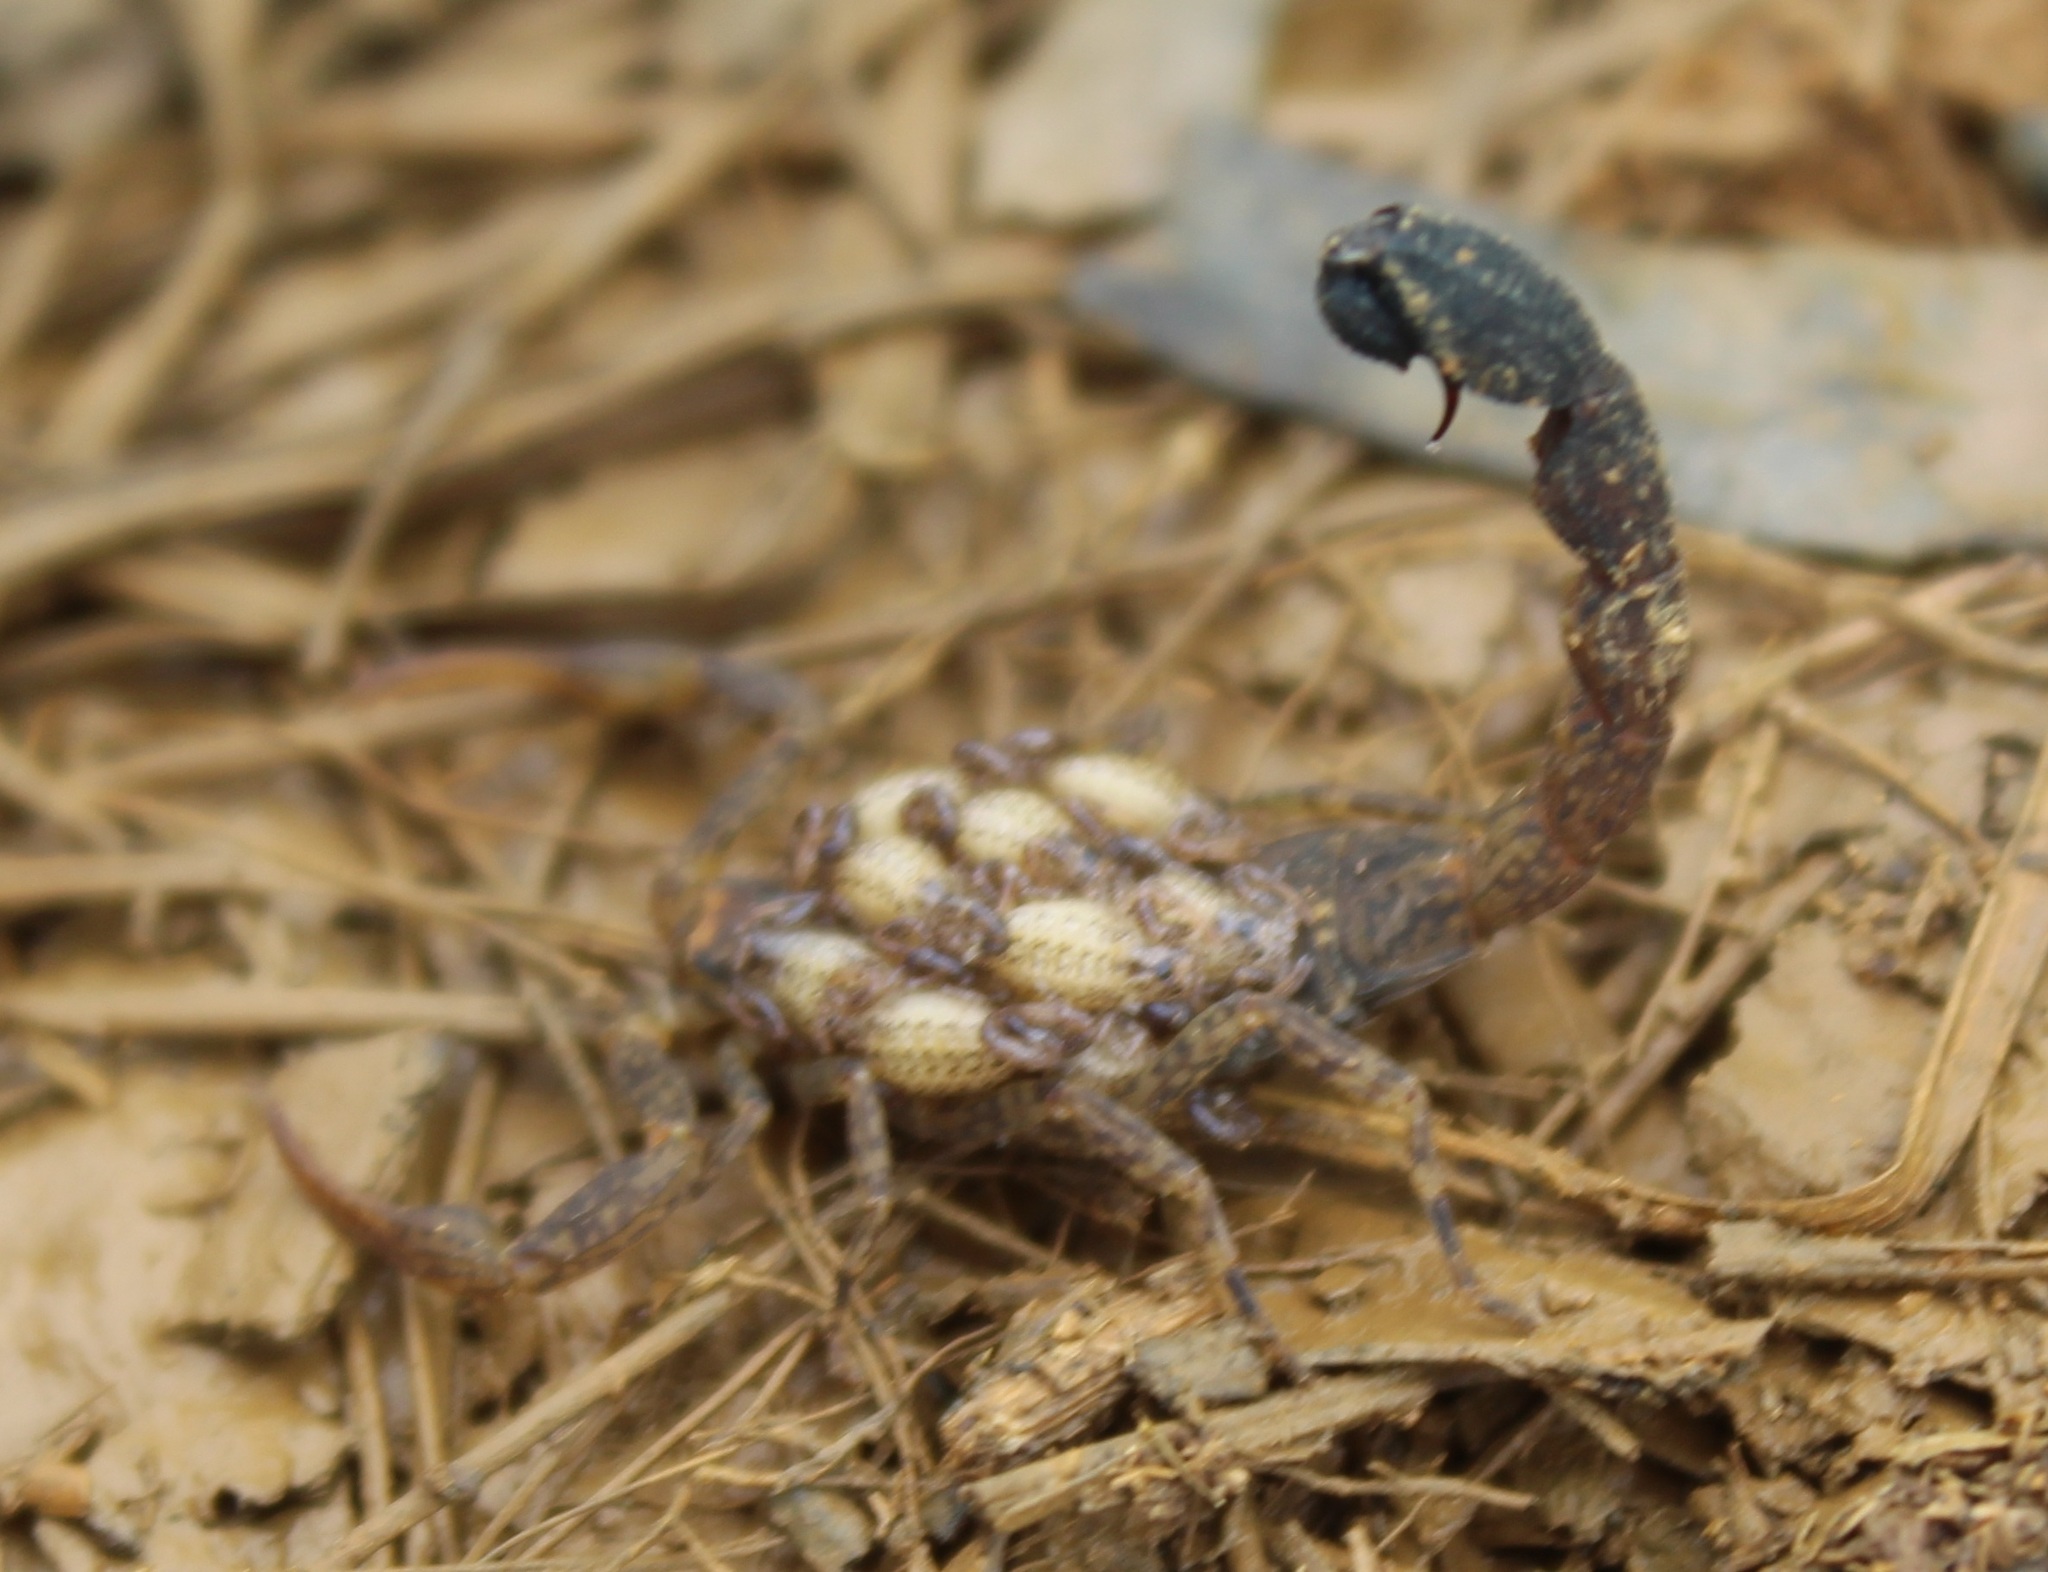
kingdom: Animalia
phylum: Arthropoda
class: Arachnida
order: Scorpiones
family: Buthidae
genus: Tityus
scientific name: Tityus columbianus
